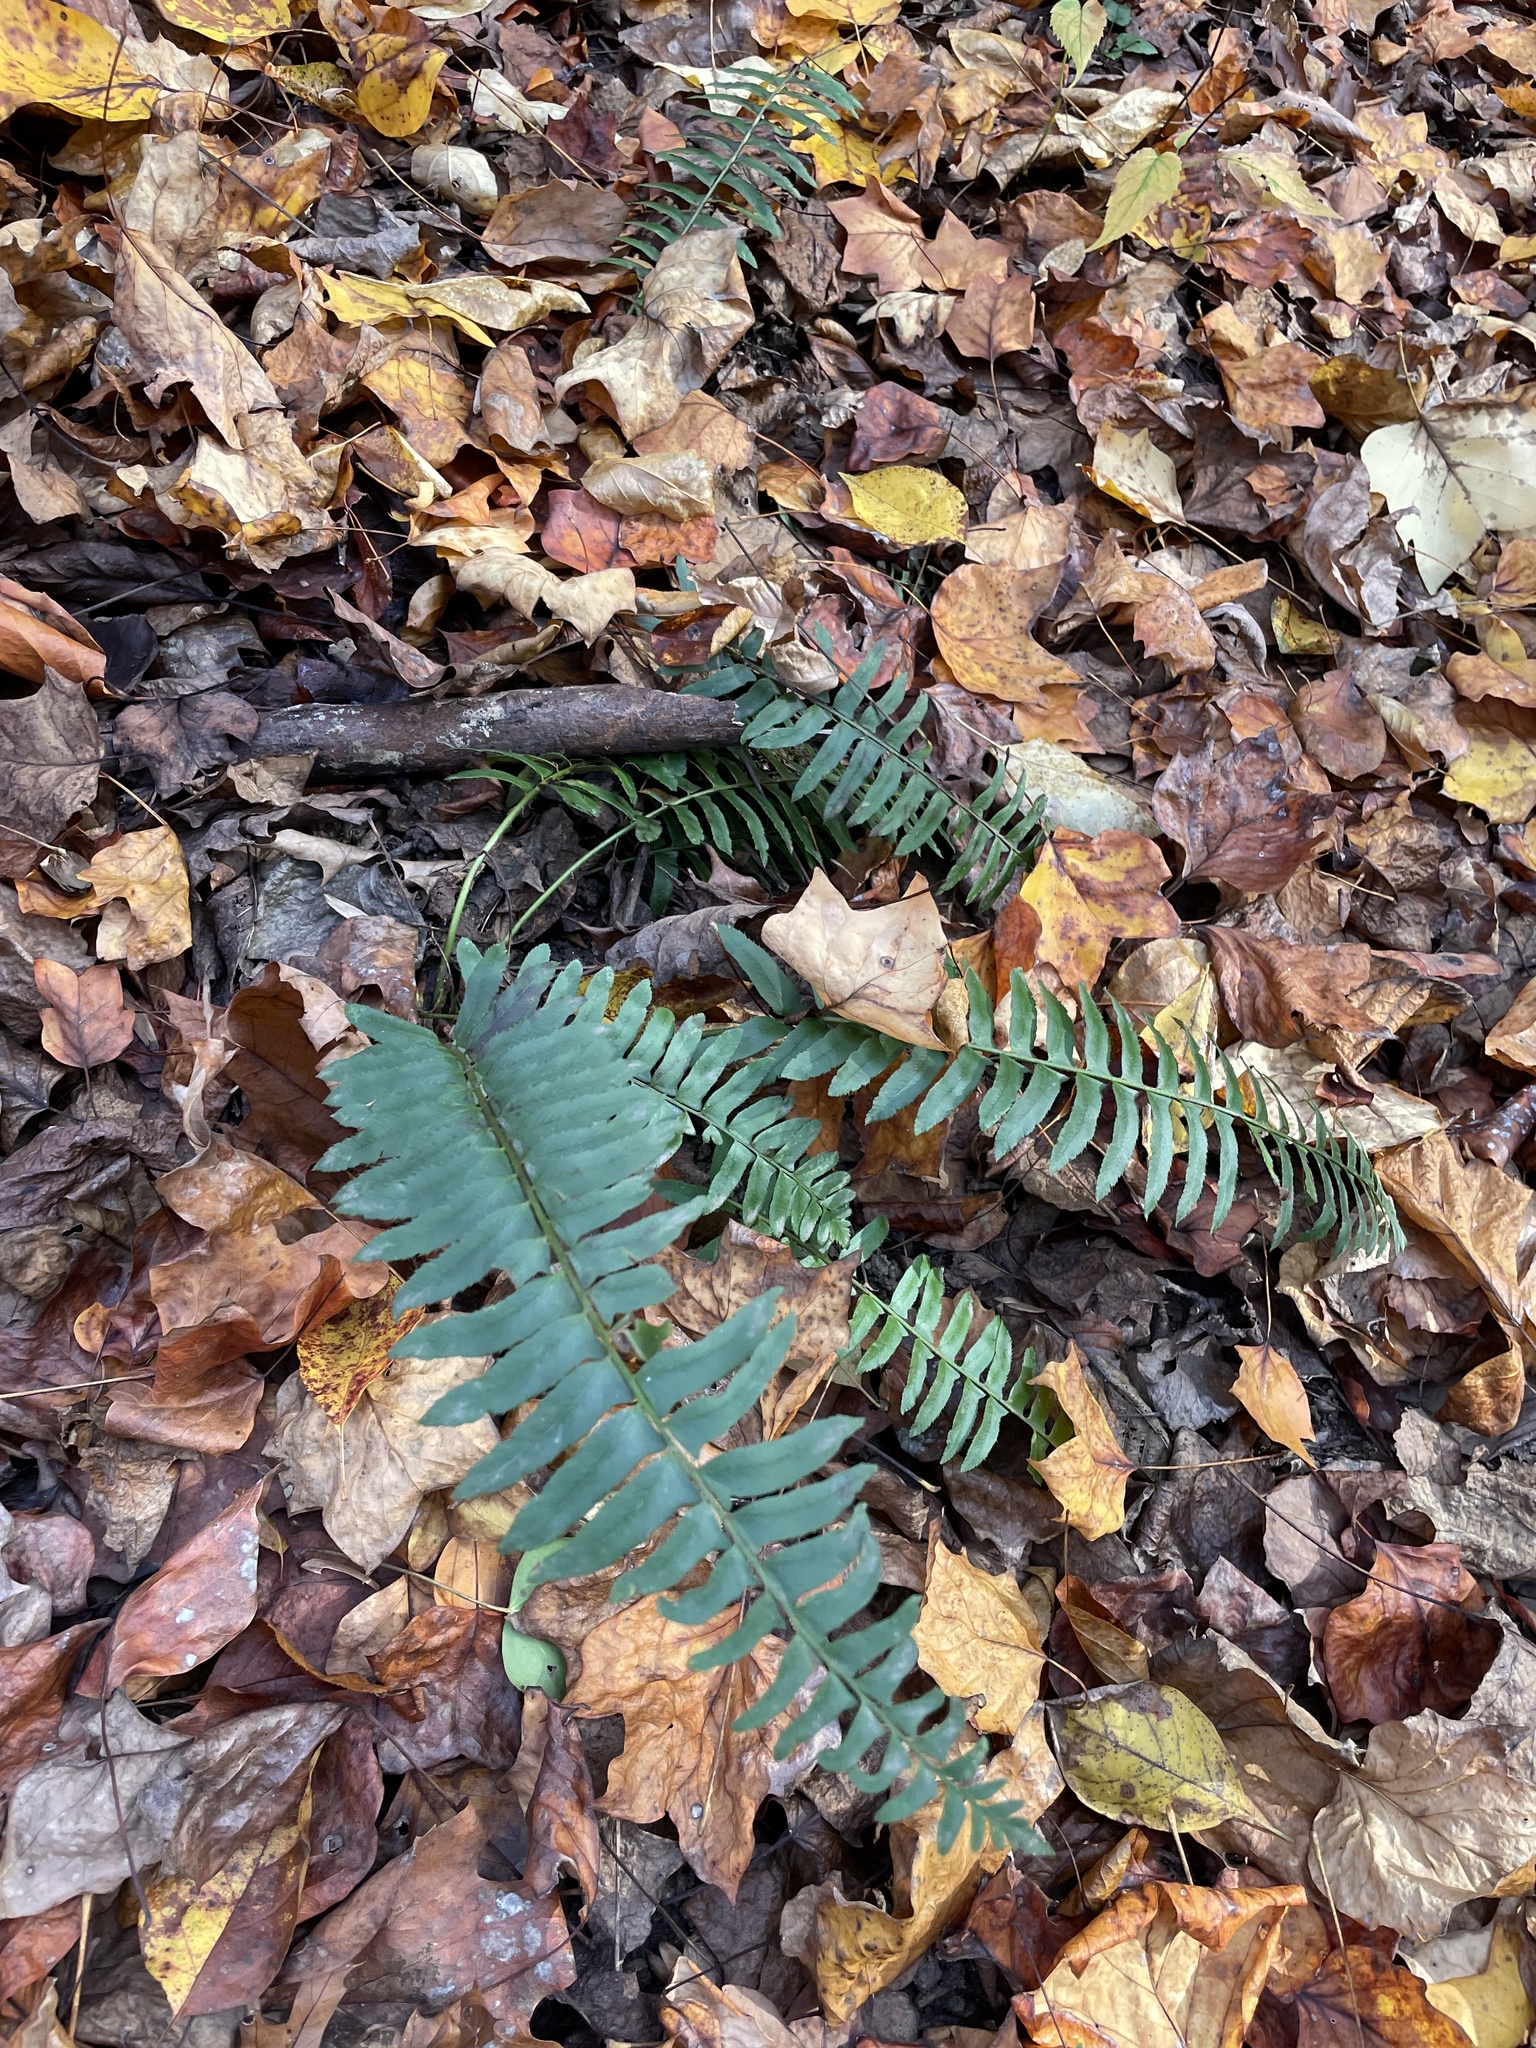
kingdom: Plantae
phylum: Tracheophyta
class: Polypodiopsida
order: Polypodiales
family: Dryopteridaceae
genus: Polystichum
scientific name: Polystichum acrostichoides
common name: Christmas fern
